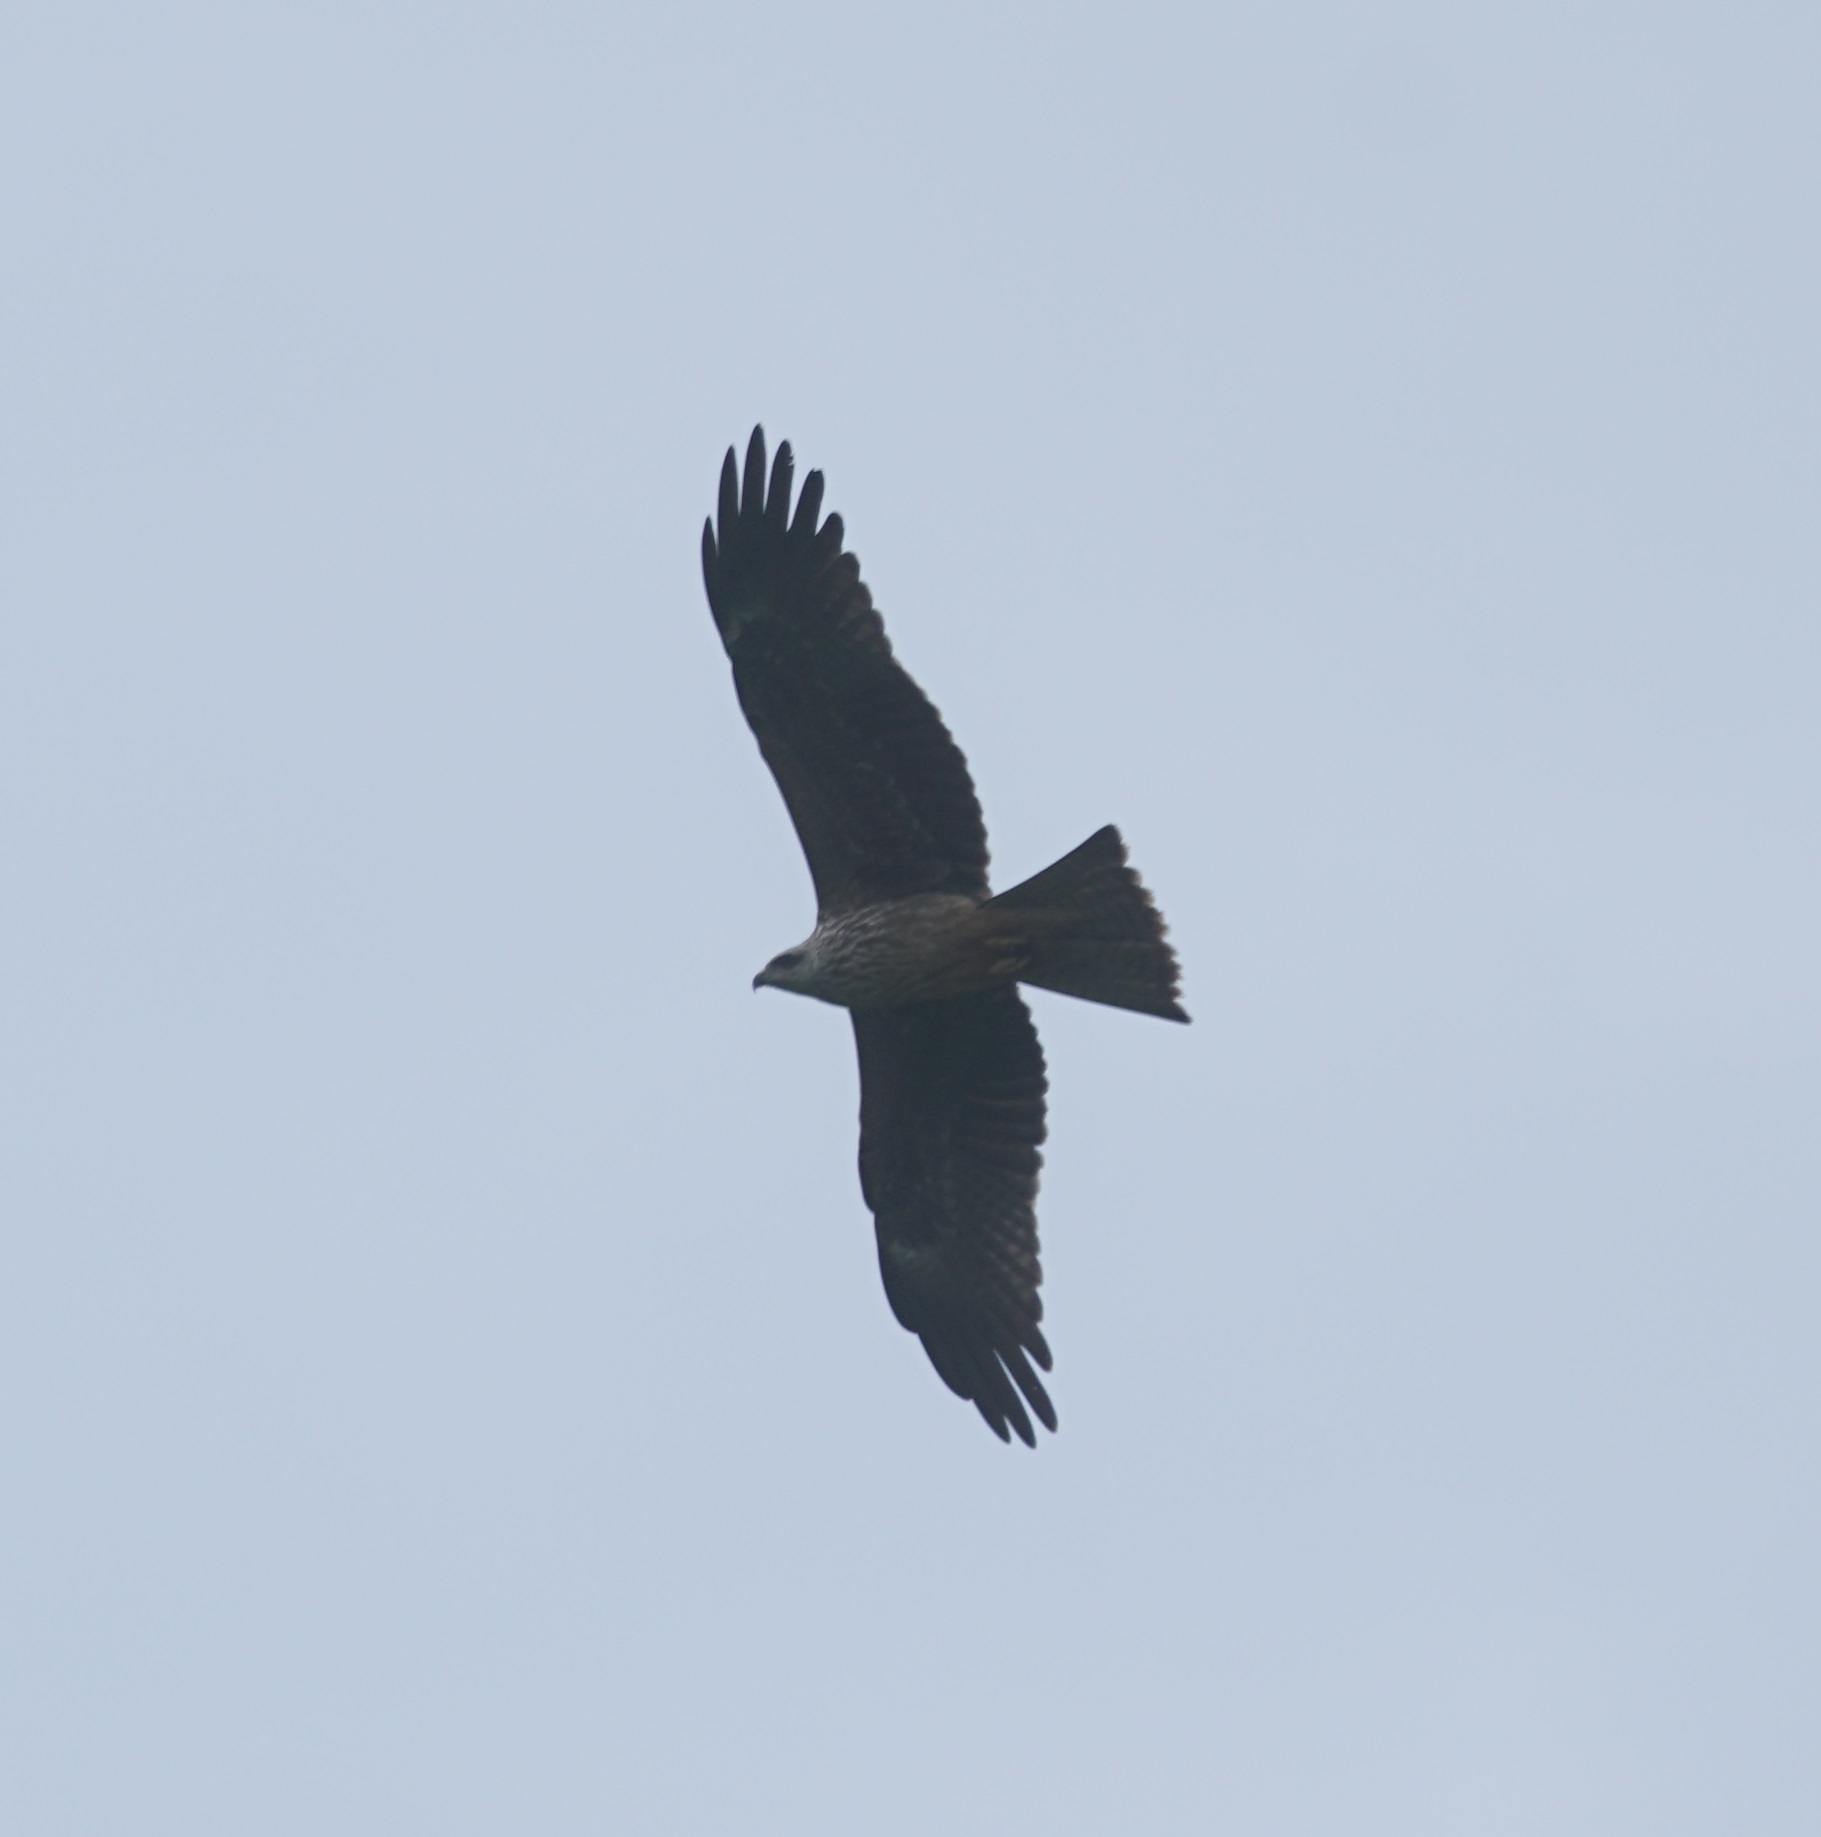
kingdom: Animalia
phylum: Chordata
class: Aves
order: Accipitriformes
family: Accipitridae
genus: Milvus
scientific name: Milvus migrans
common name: Black kite
